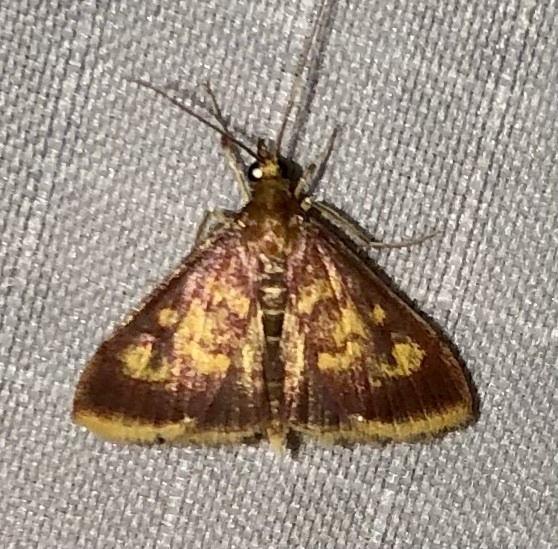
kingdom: Animalia
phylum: Arthropoda
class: Insecta
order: Lepidoptera
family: Crambidae
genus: Pyrausta
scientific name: Pyrausta acrionalis
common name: Mint-loving pyrausta moth
